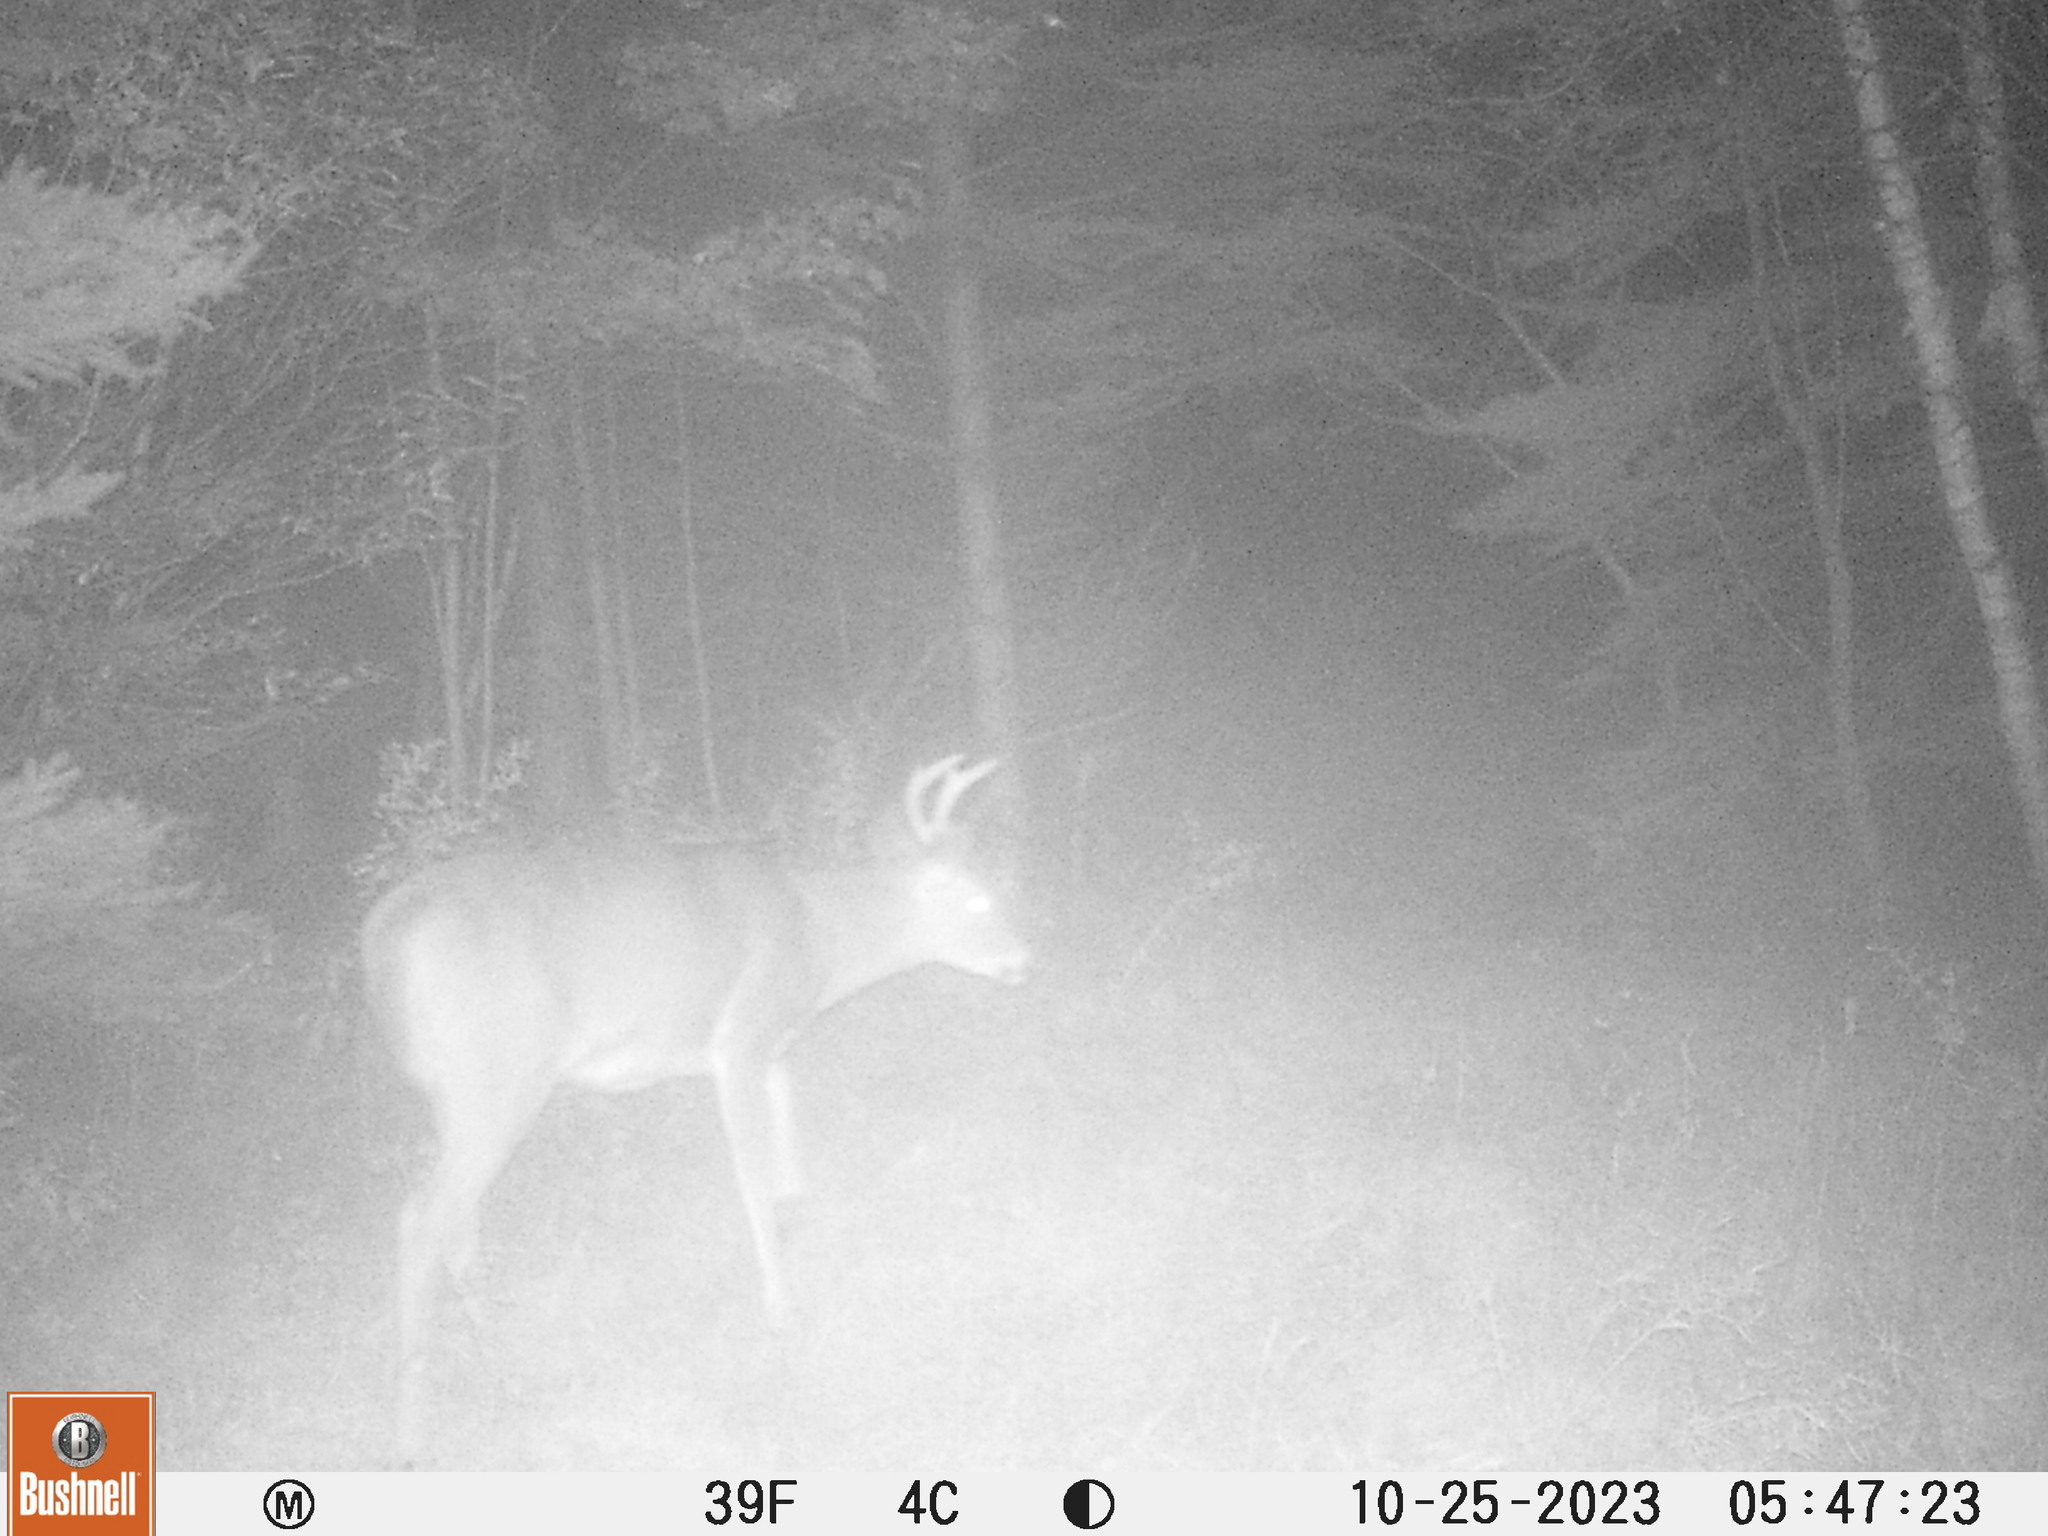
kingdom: Animalia
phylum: Chordata
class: Mammalia
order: Artiodactyla
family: Cervidae
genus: Odocoileus
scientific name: Odocoileus virginianus
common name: White-tailed deer
